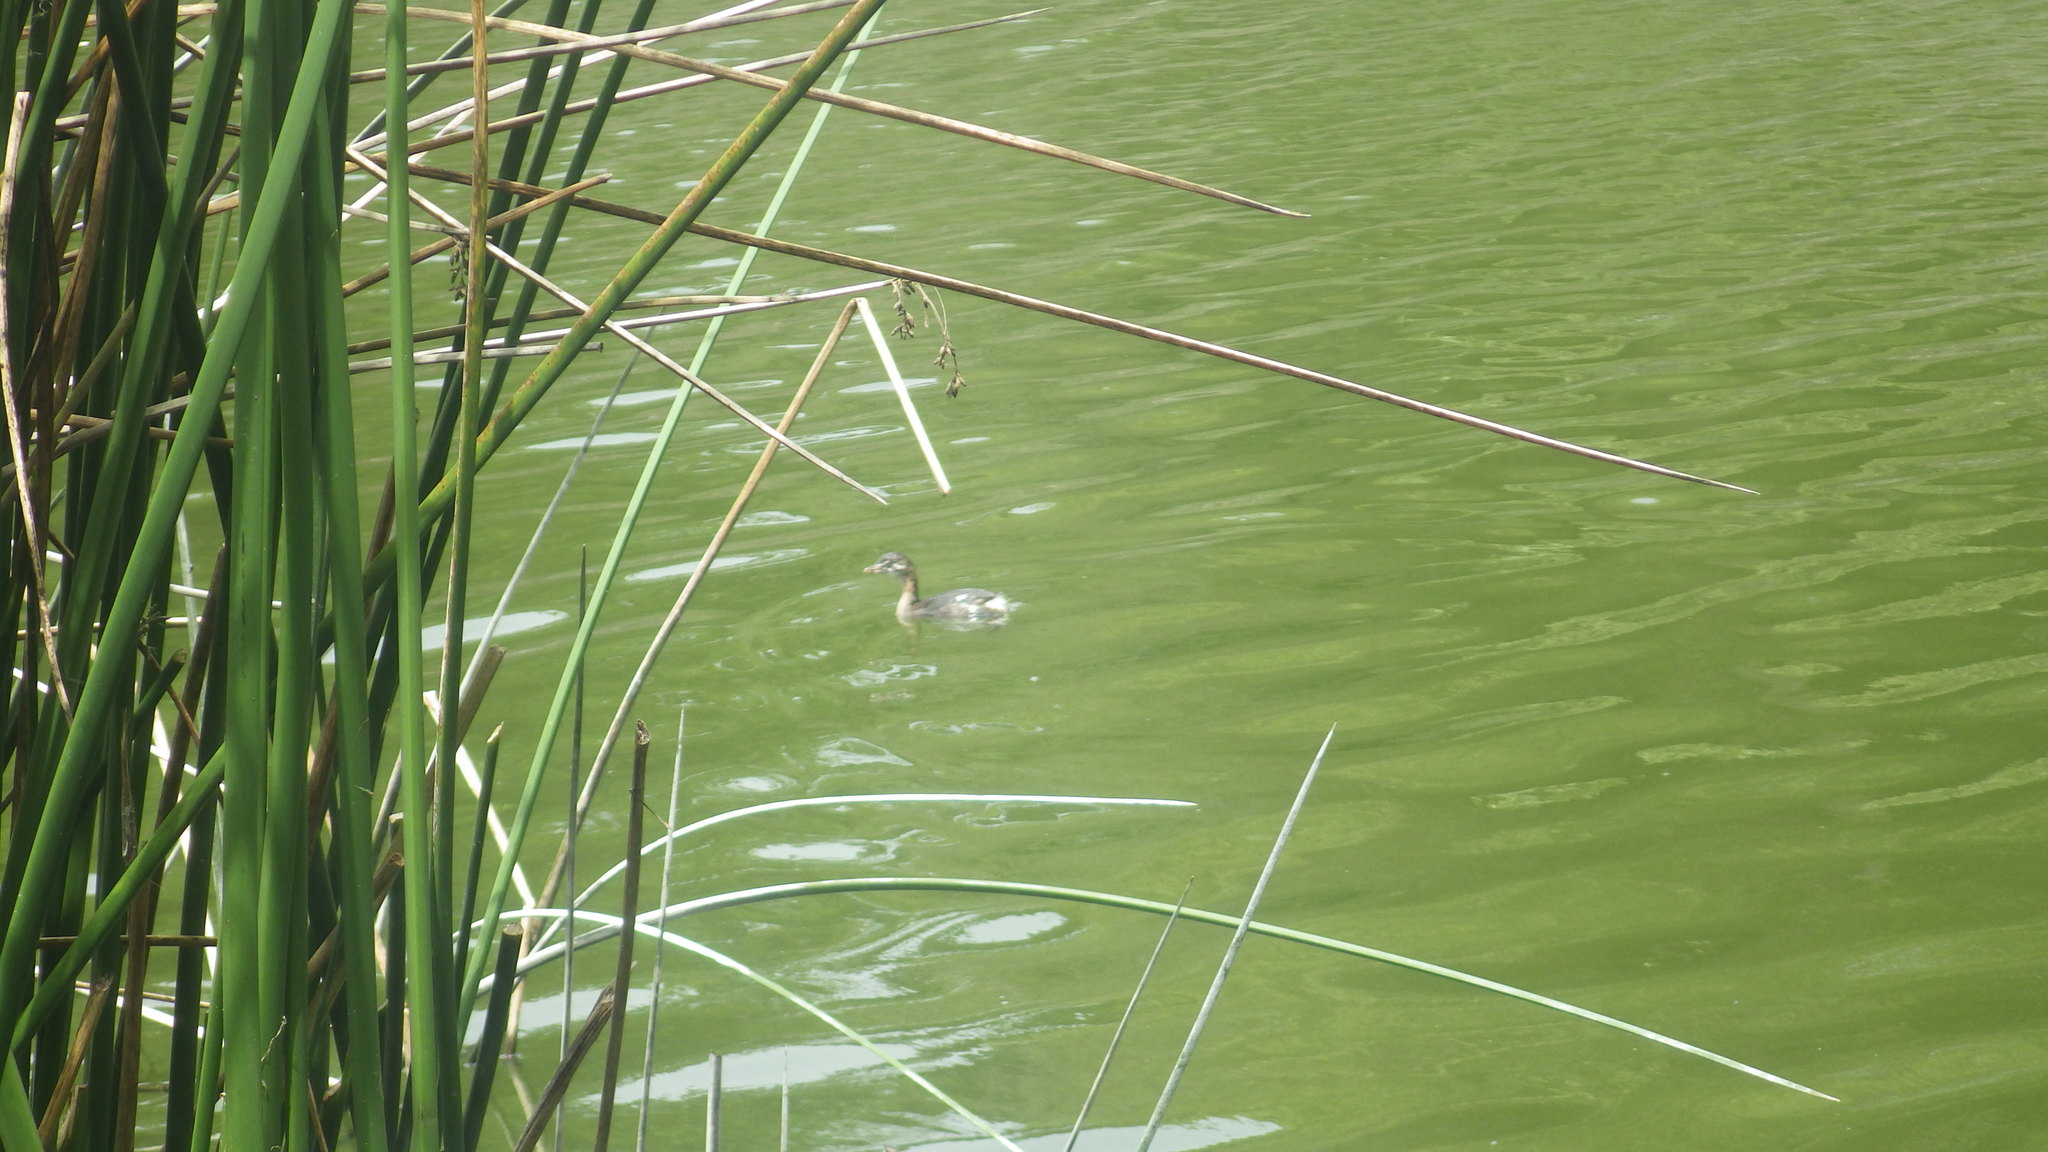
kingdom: Animalia
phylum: Chordata
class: Aves
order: Podicipediformes
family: Podicipedidae
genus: Podilymbus
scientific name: Podilymbus podiceps
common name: Pied-billed grebe
